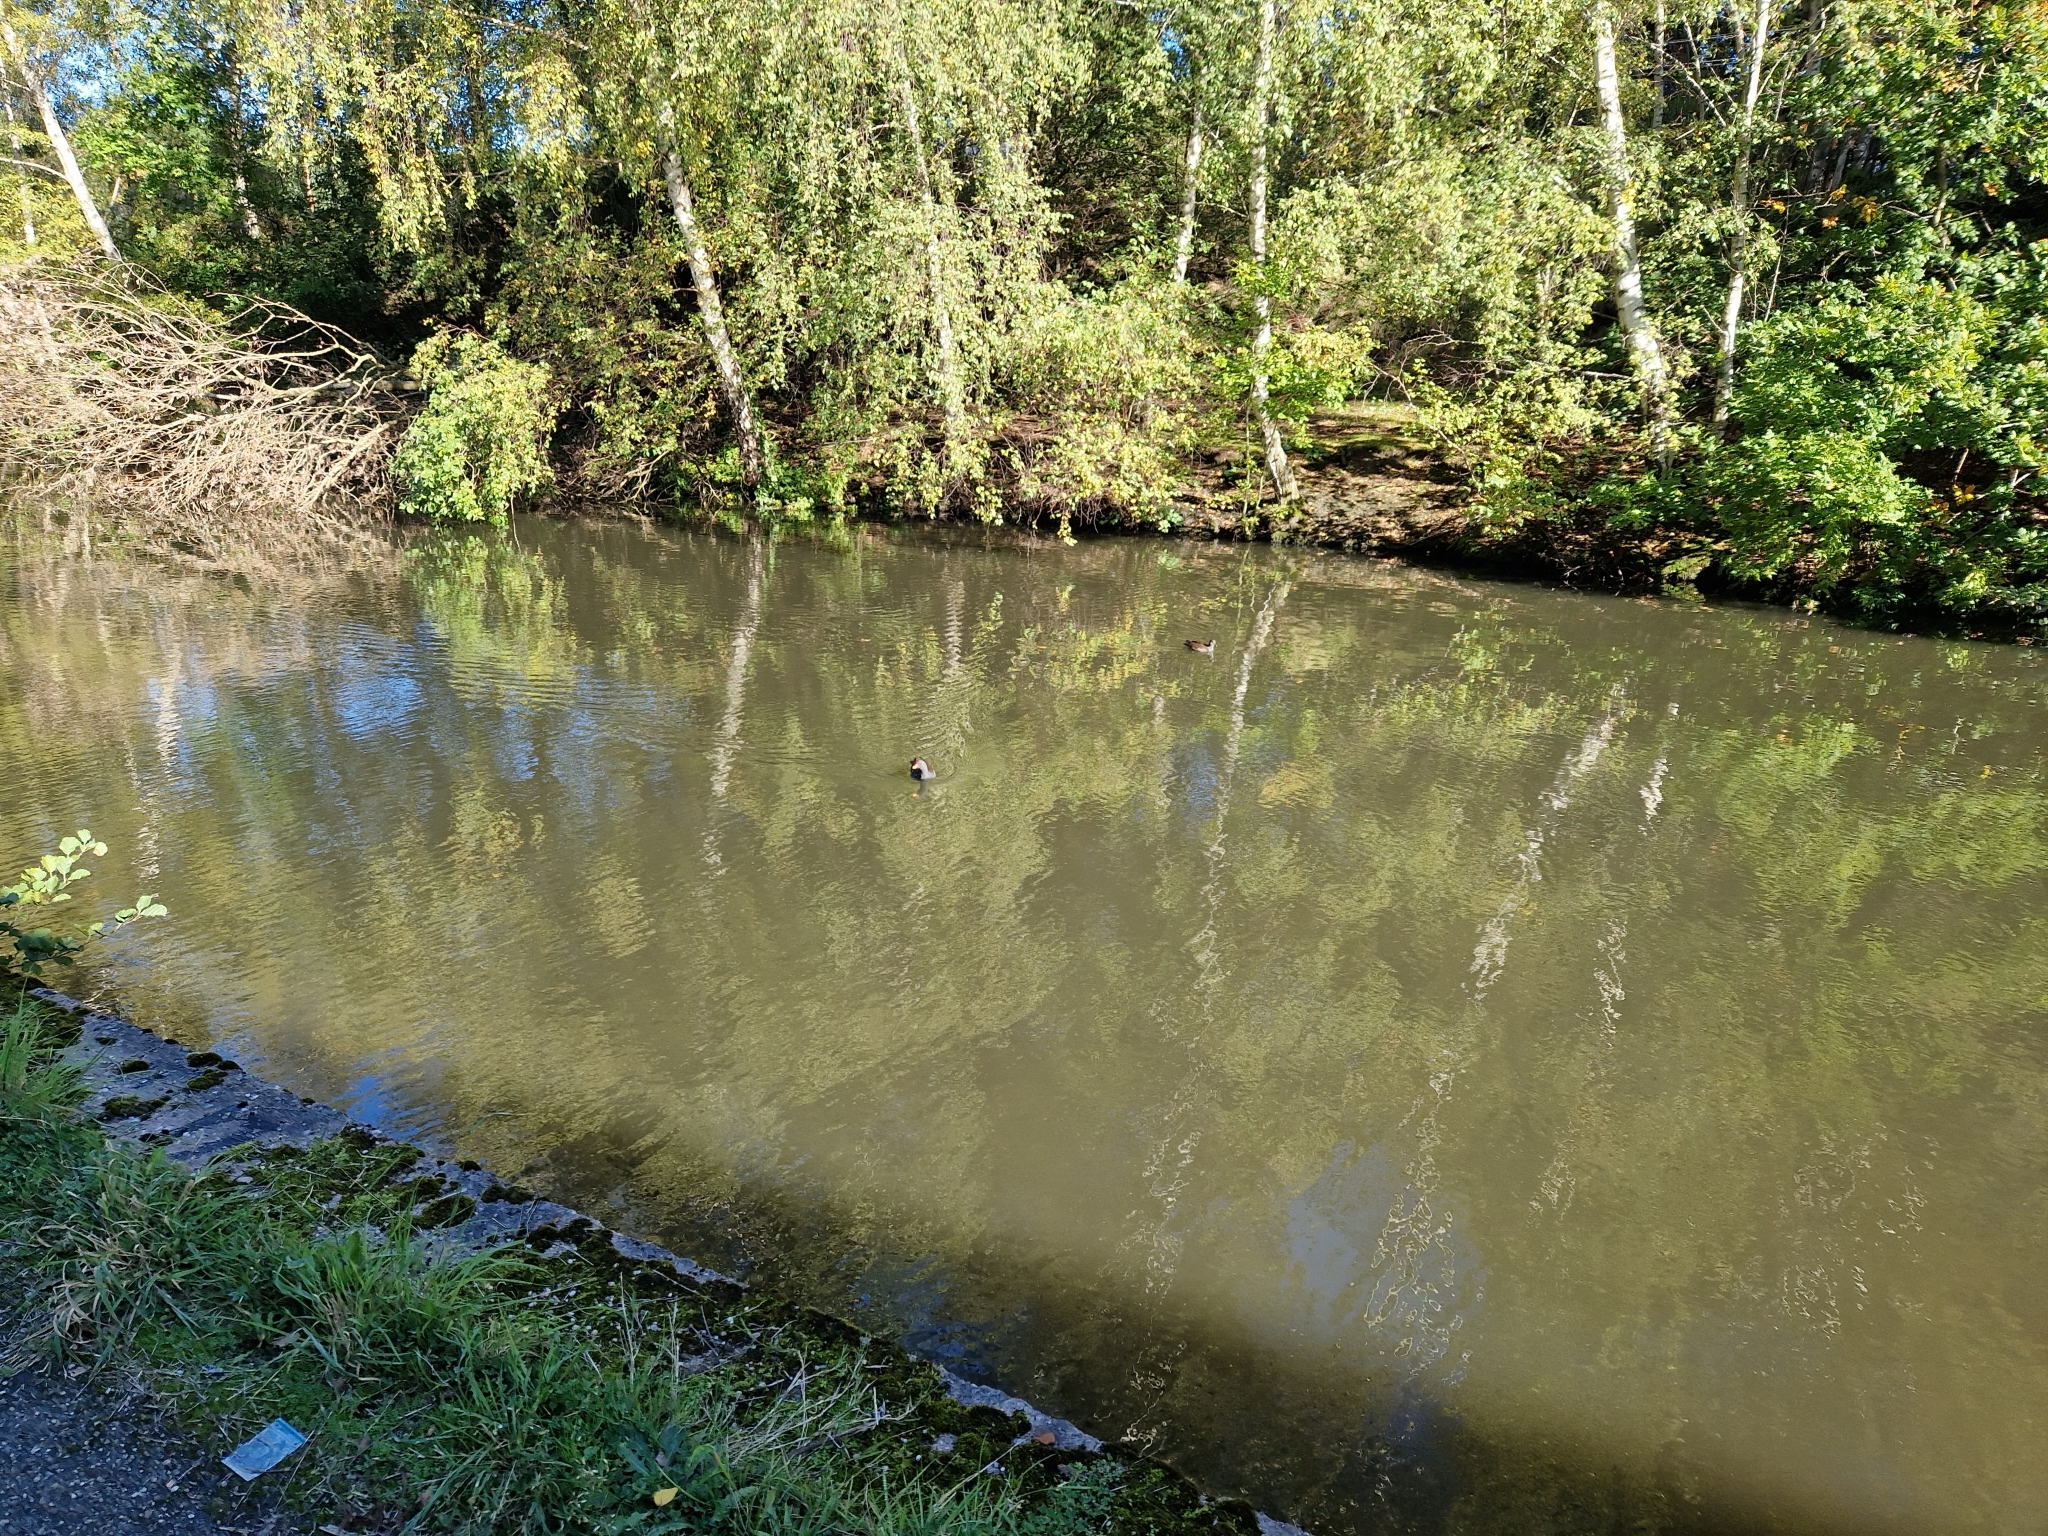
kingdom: Animalia
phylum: Chordata
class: Aves
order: Gruiformes
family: Rallidae
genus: Gallinula
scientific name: Gallinula chloropus
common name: Common moorhen
